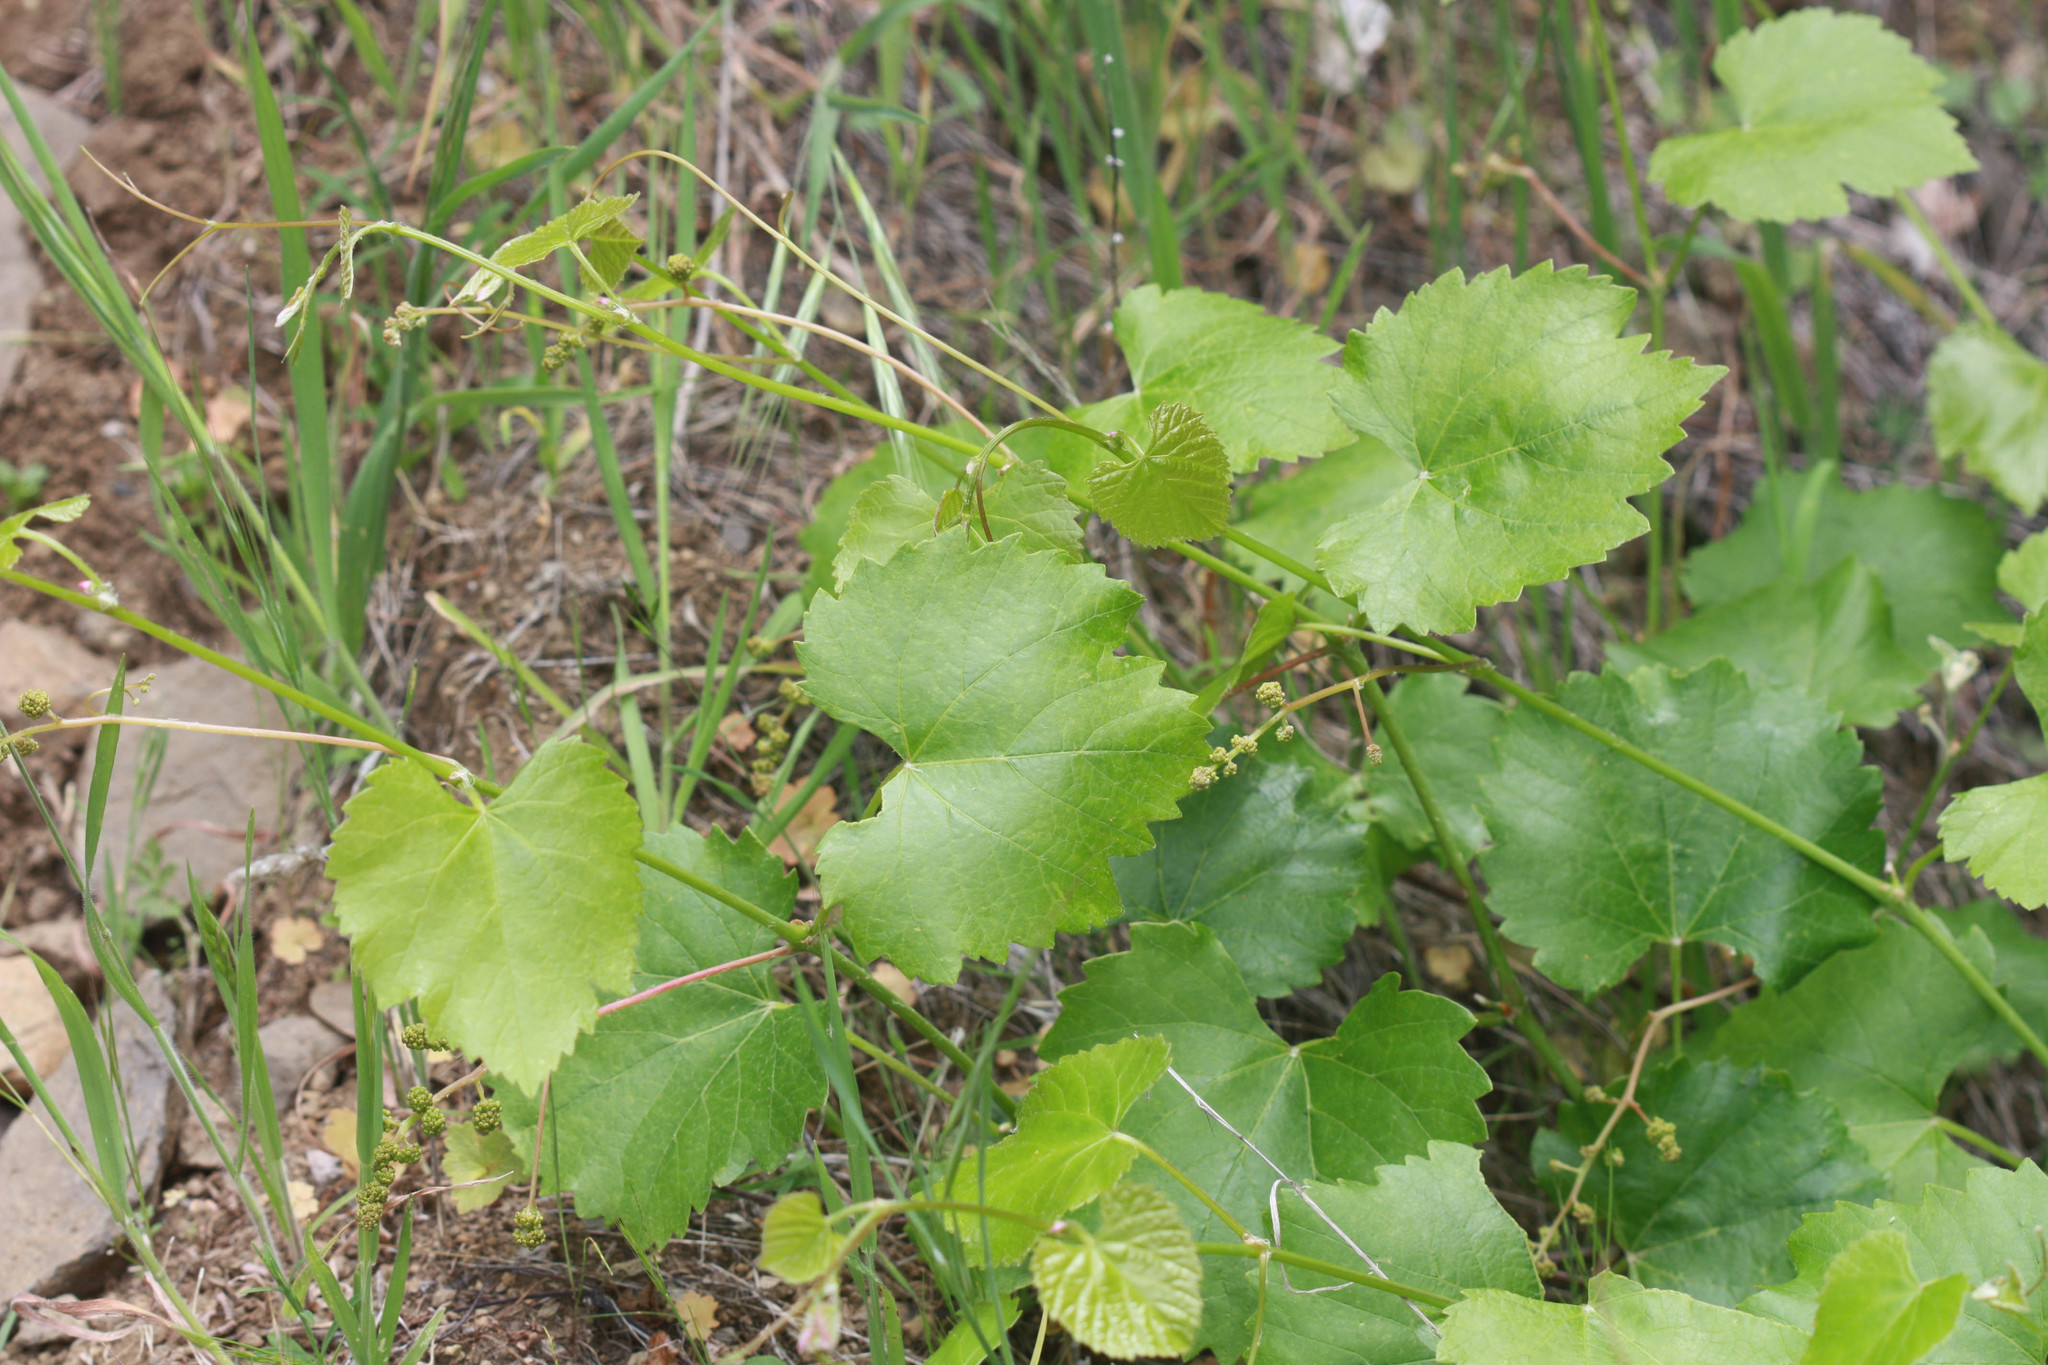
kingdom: Plantae
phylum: Tracheophyta
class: Magnoliopsida
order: Vitales
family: Vitaceae
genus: Vitis
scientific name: Vitis californica
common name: California wild grape
